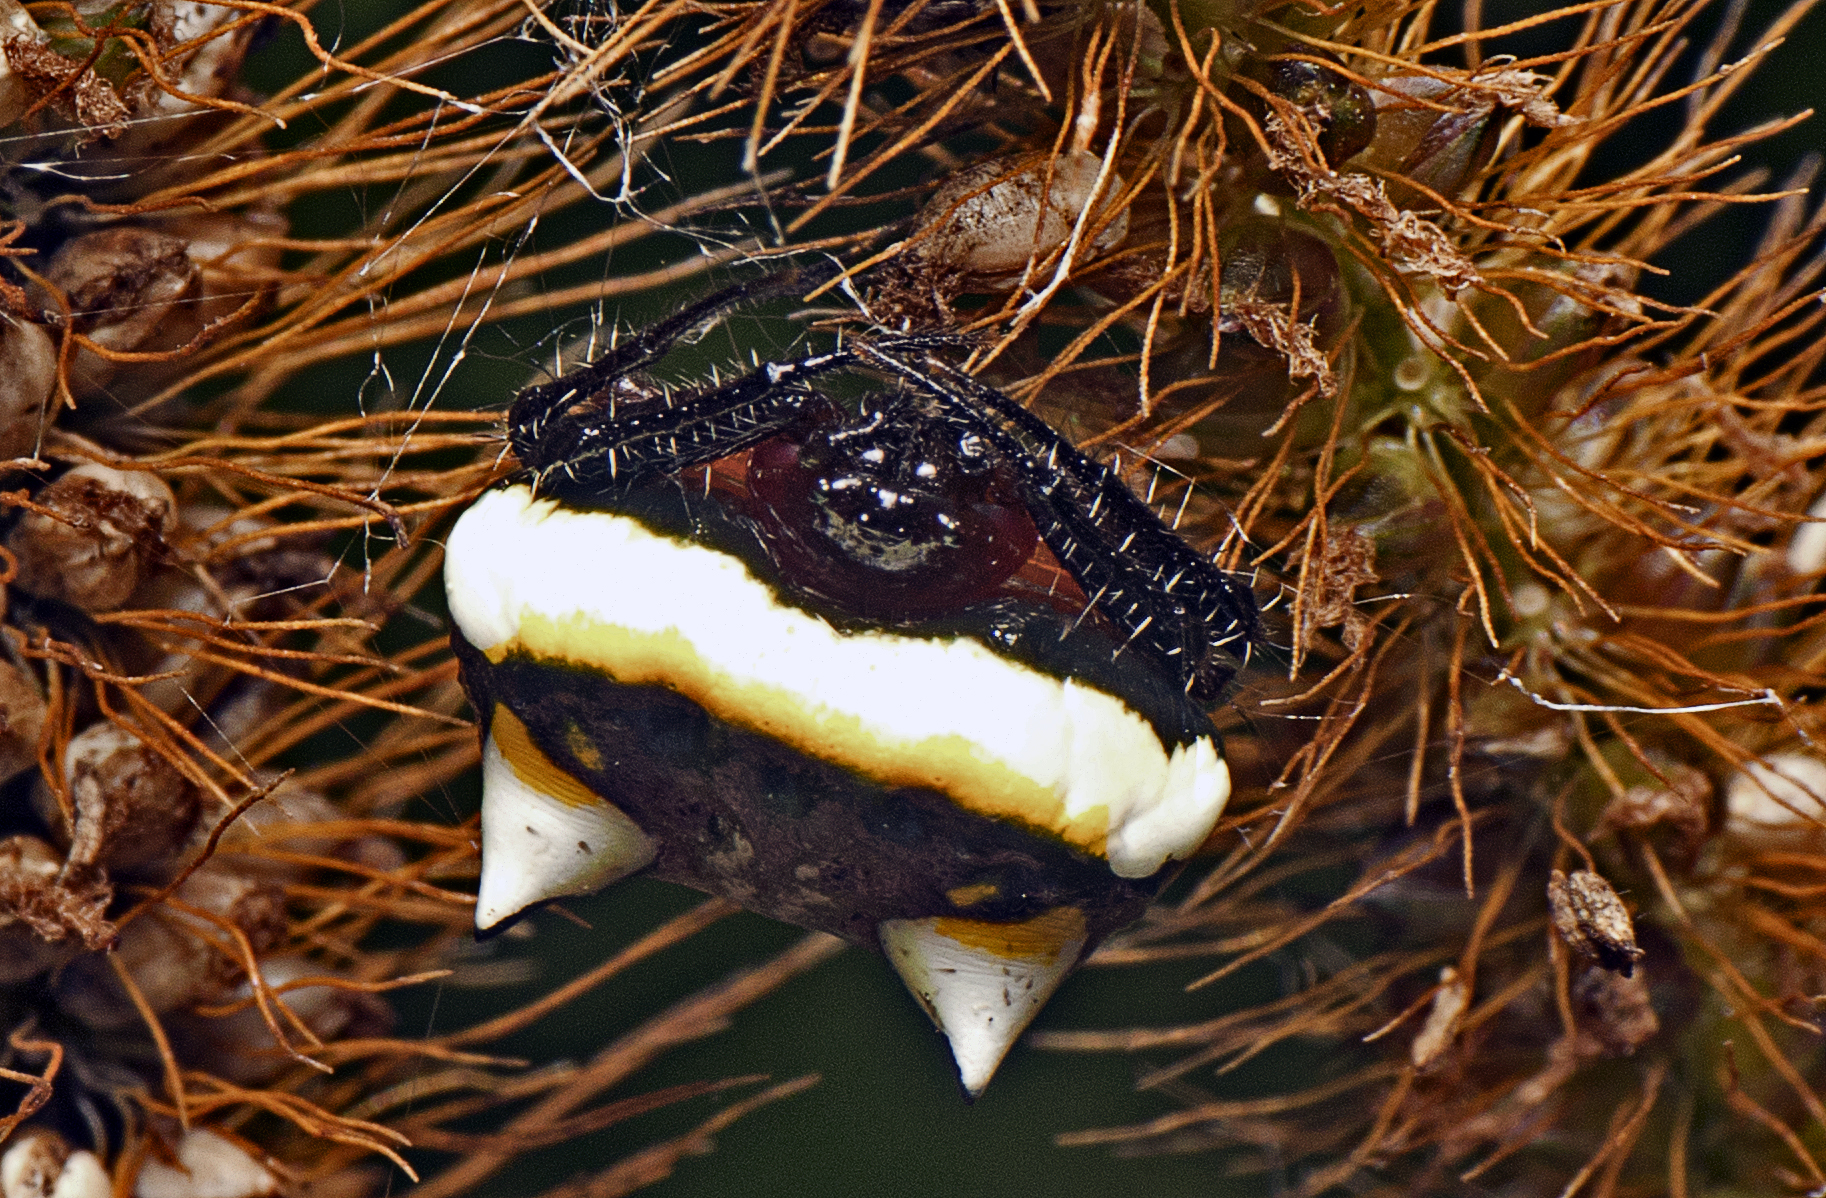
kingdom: Animalia
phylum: Arthropoda
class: Arachnida
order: Araneae
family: Araneidae
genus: Poecilopachys
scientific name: Poecilopachys australasia
